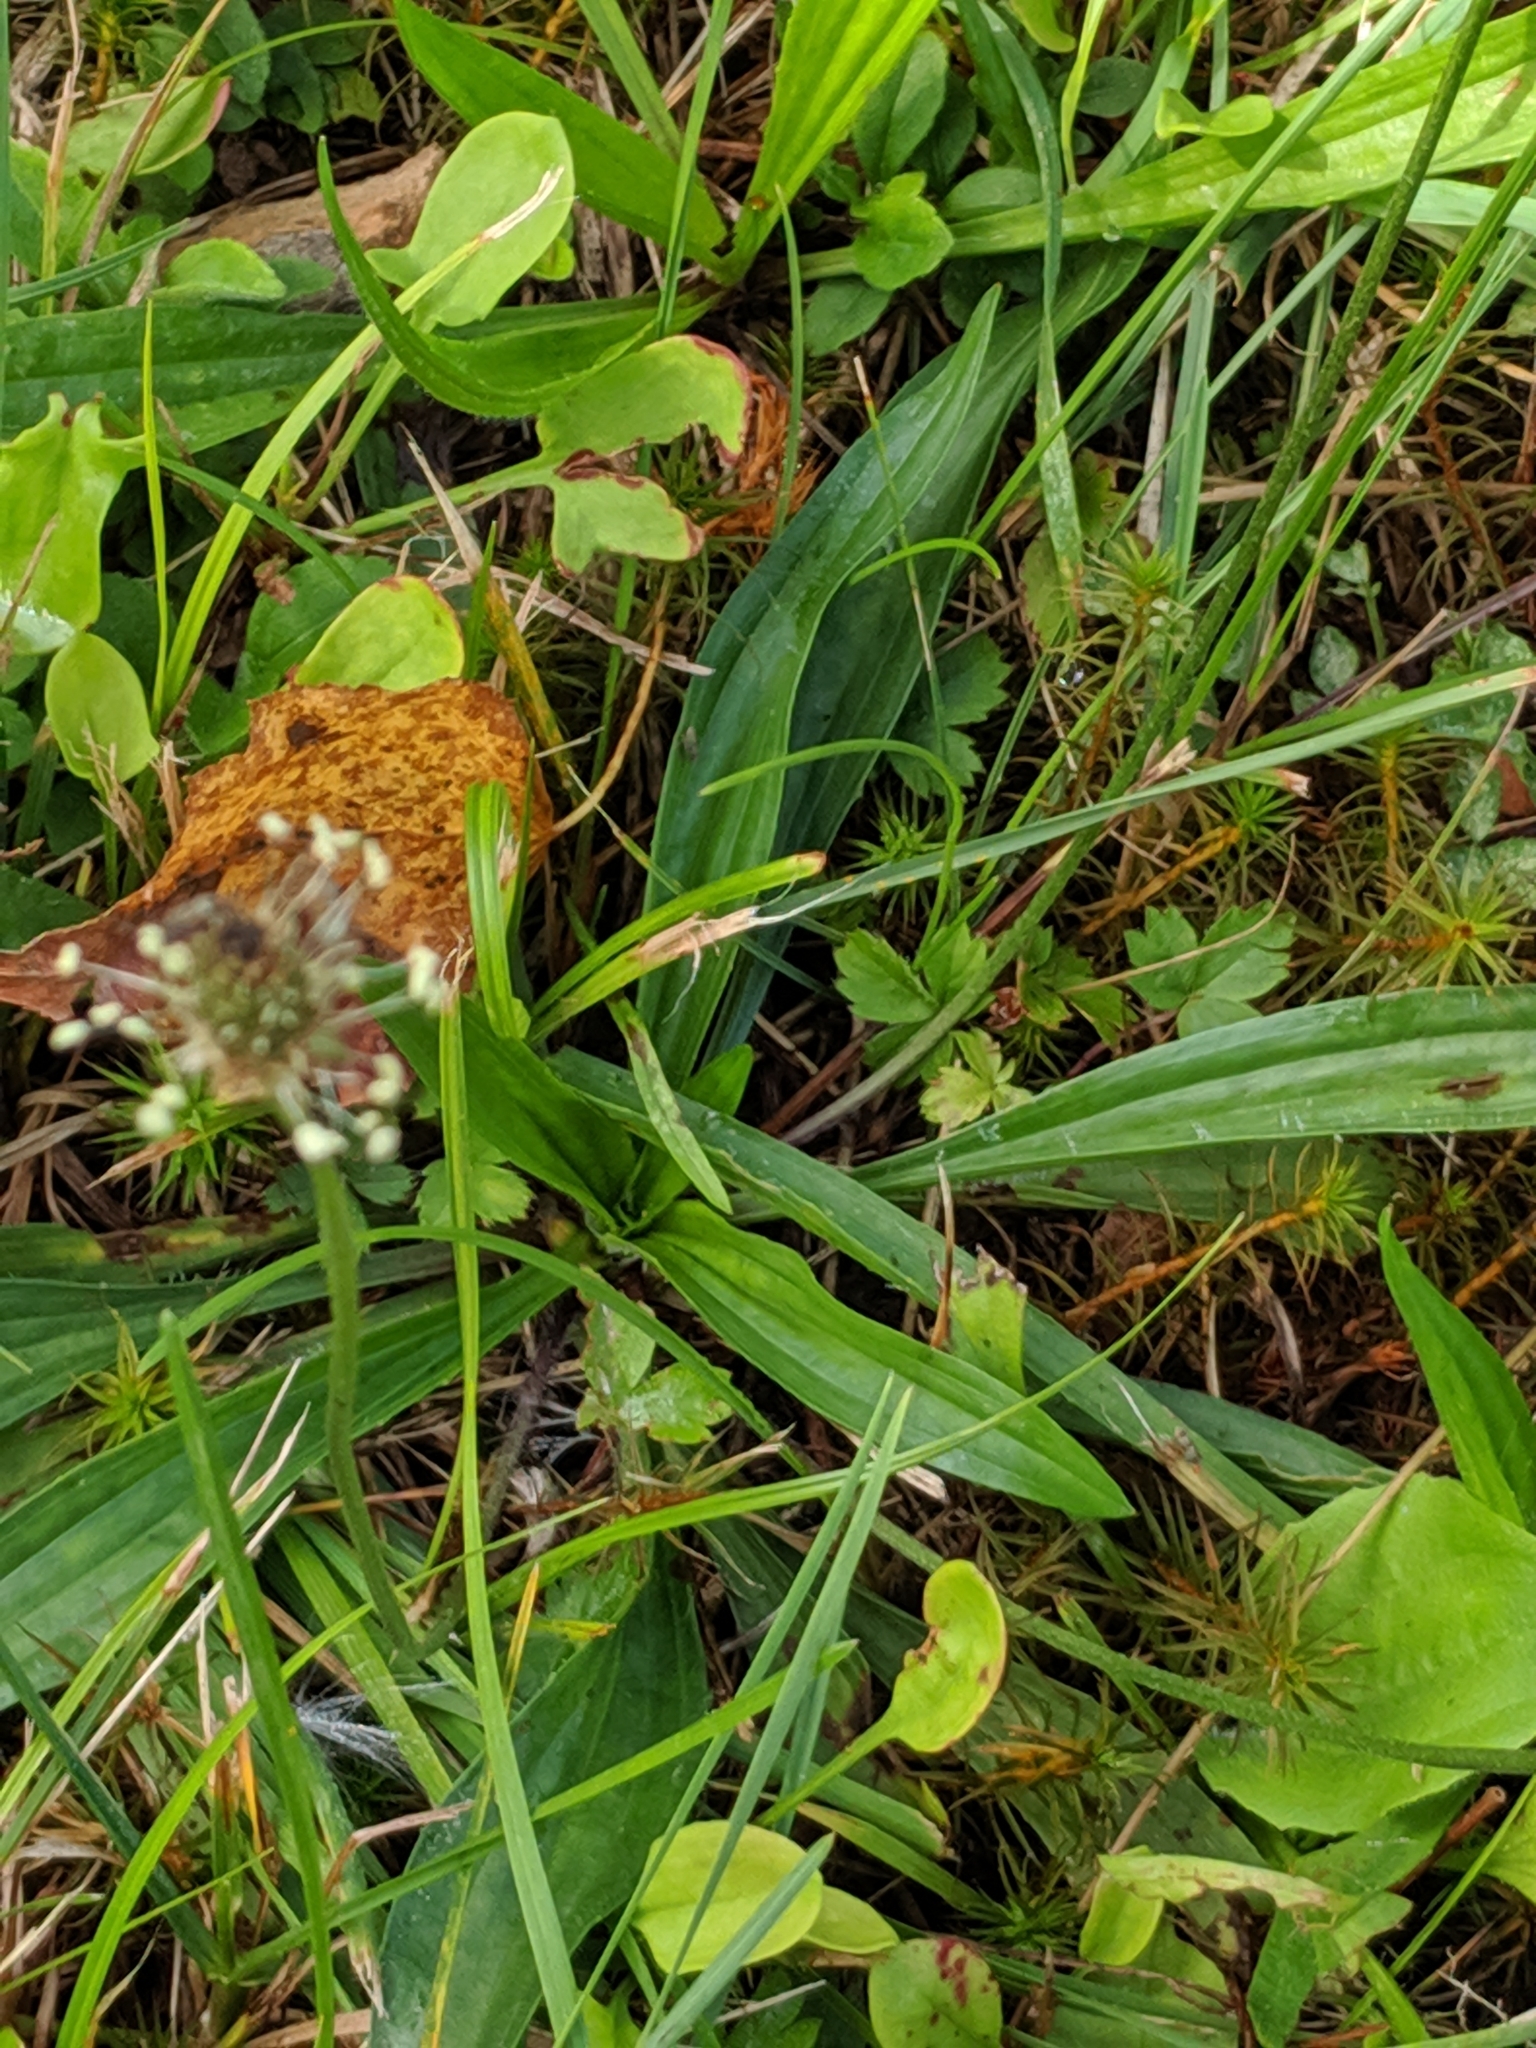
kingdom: Plantae
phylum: Tracheophyta
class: Magnoliopsida
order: Lamiales
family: Plantaginaceae
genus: Plantago
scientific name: Plantago lanceolata
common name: Ribwort plantain
